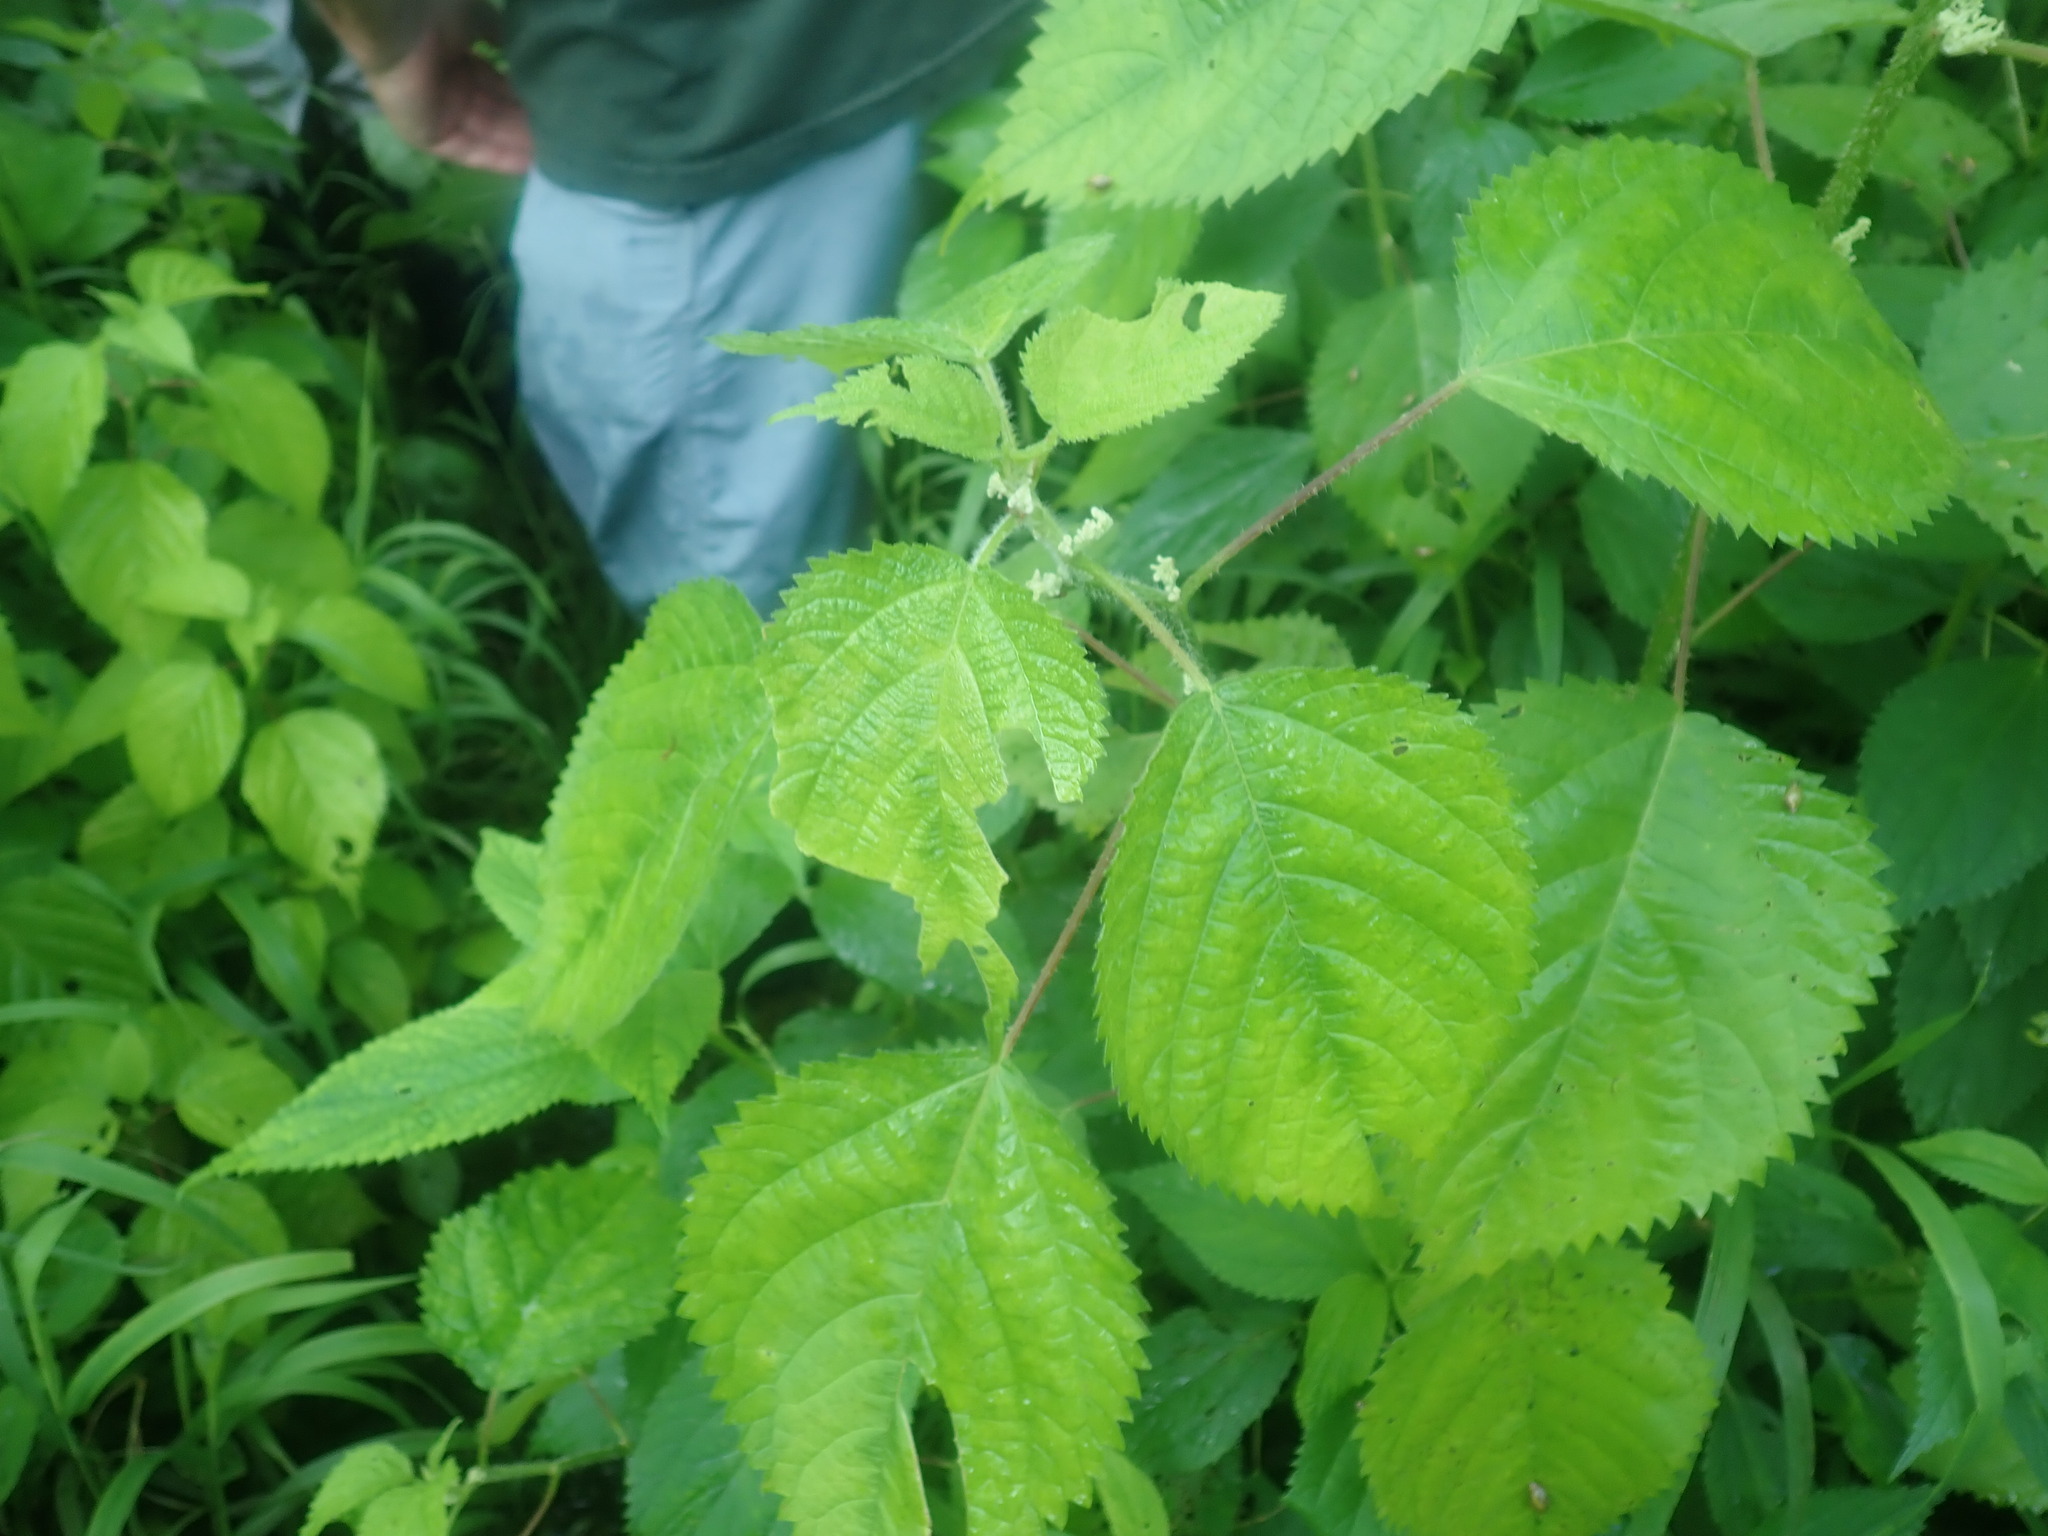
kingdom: Plantae
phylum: Tracheophyta
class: Magnoliopsida
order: Rosales
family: Urticaceae
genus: Laportea
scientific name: Laportea canadensis
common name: Canada nettle
